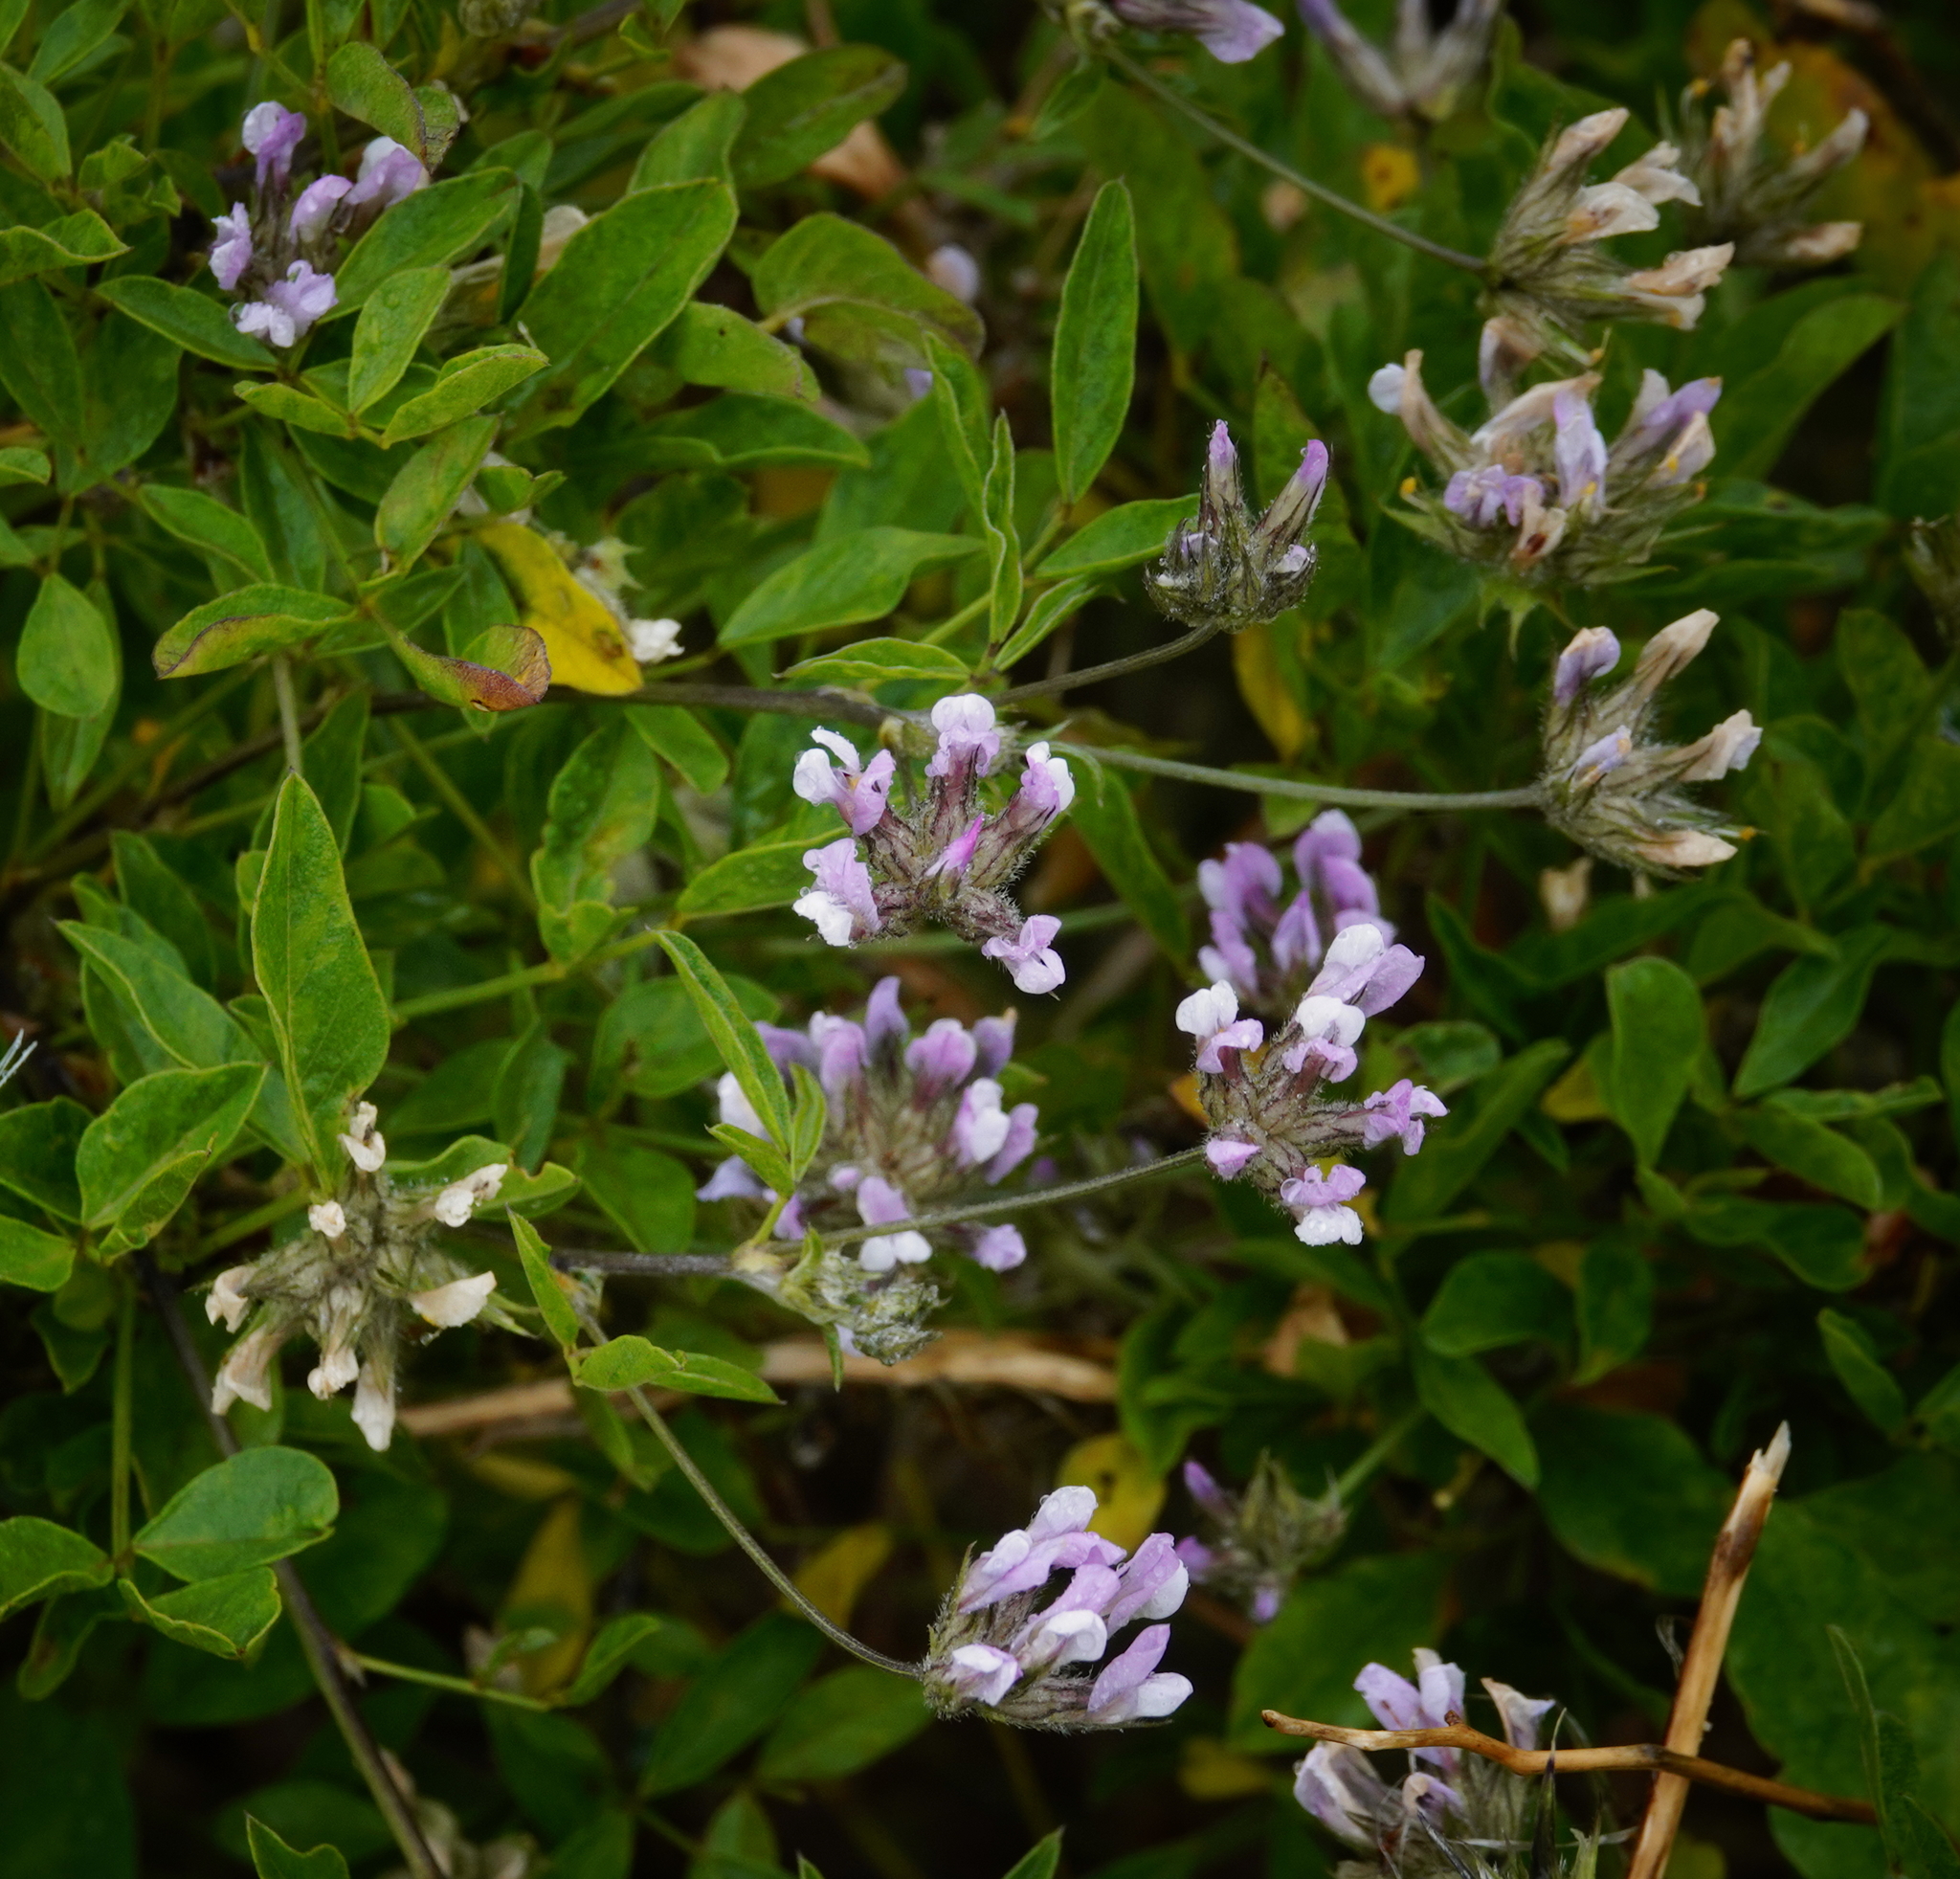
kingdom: Plantae
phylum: Tracheophyta
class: Magnoliopsida
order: Fabales
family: Fabaceae
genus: Bituminaria
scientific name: Bituminaria bituminosa
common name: Arabian pea
